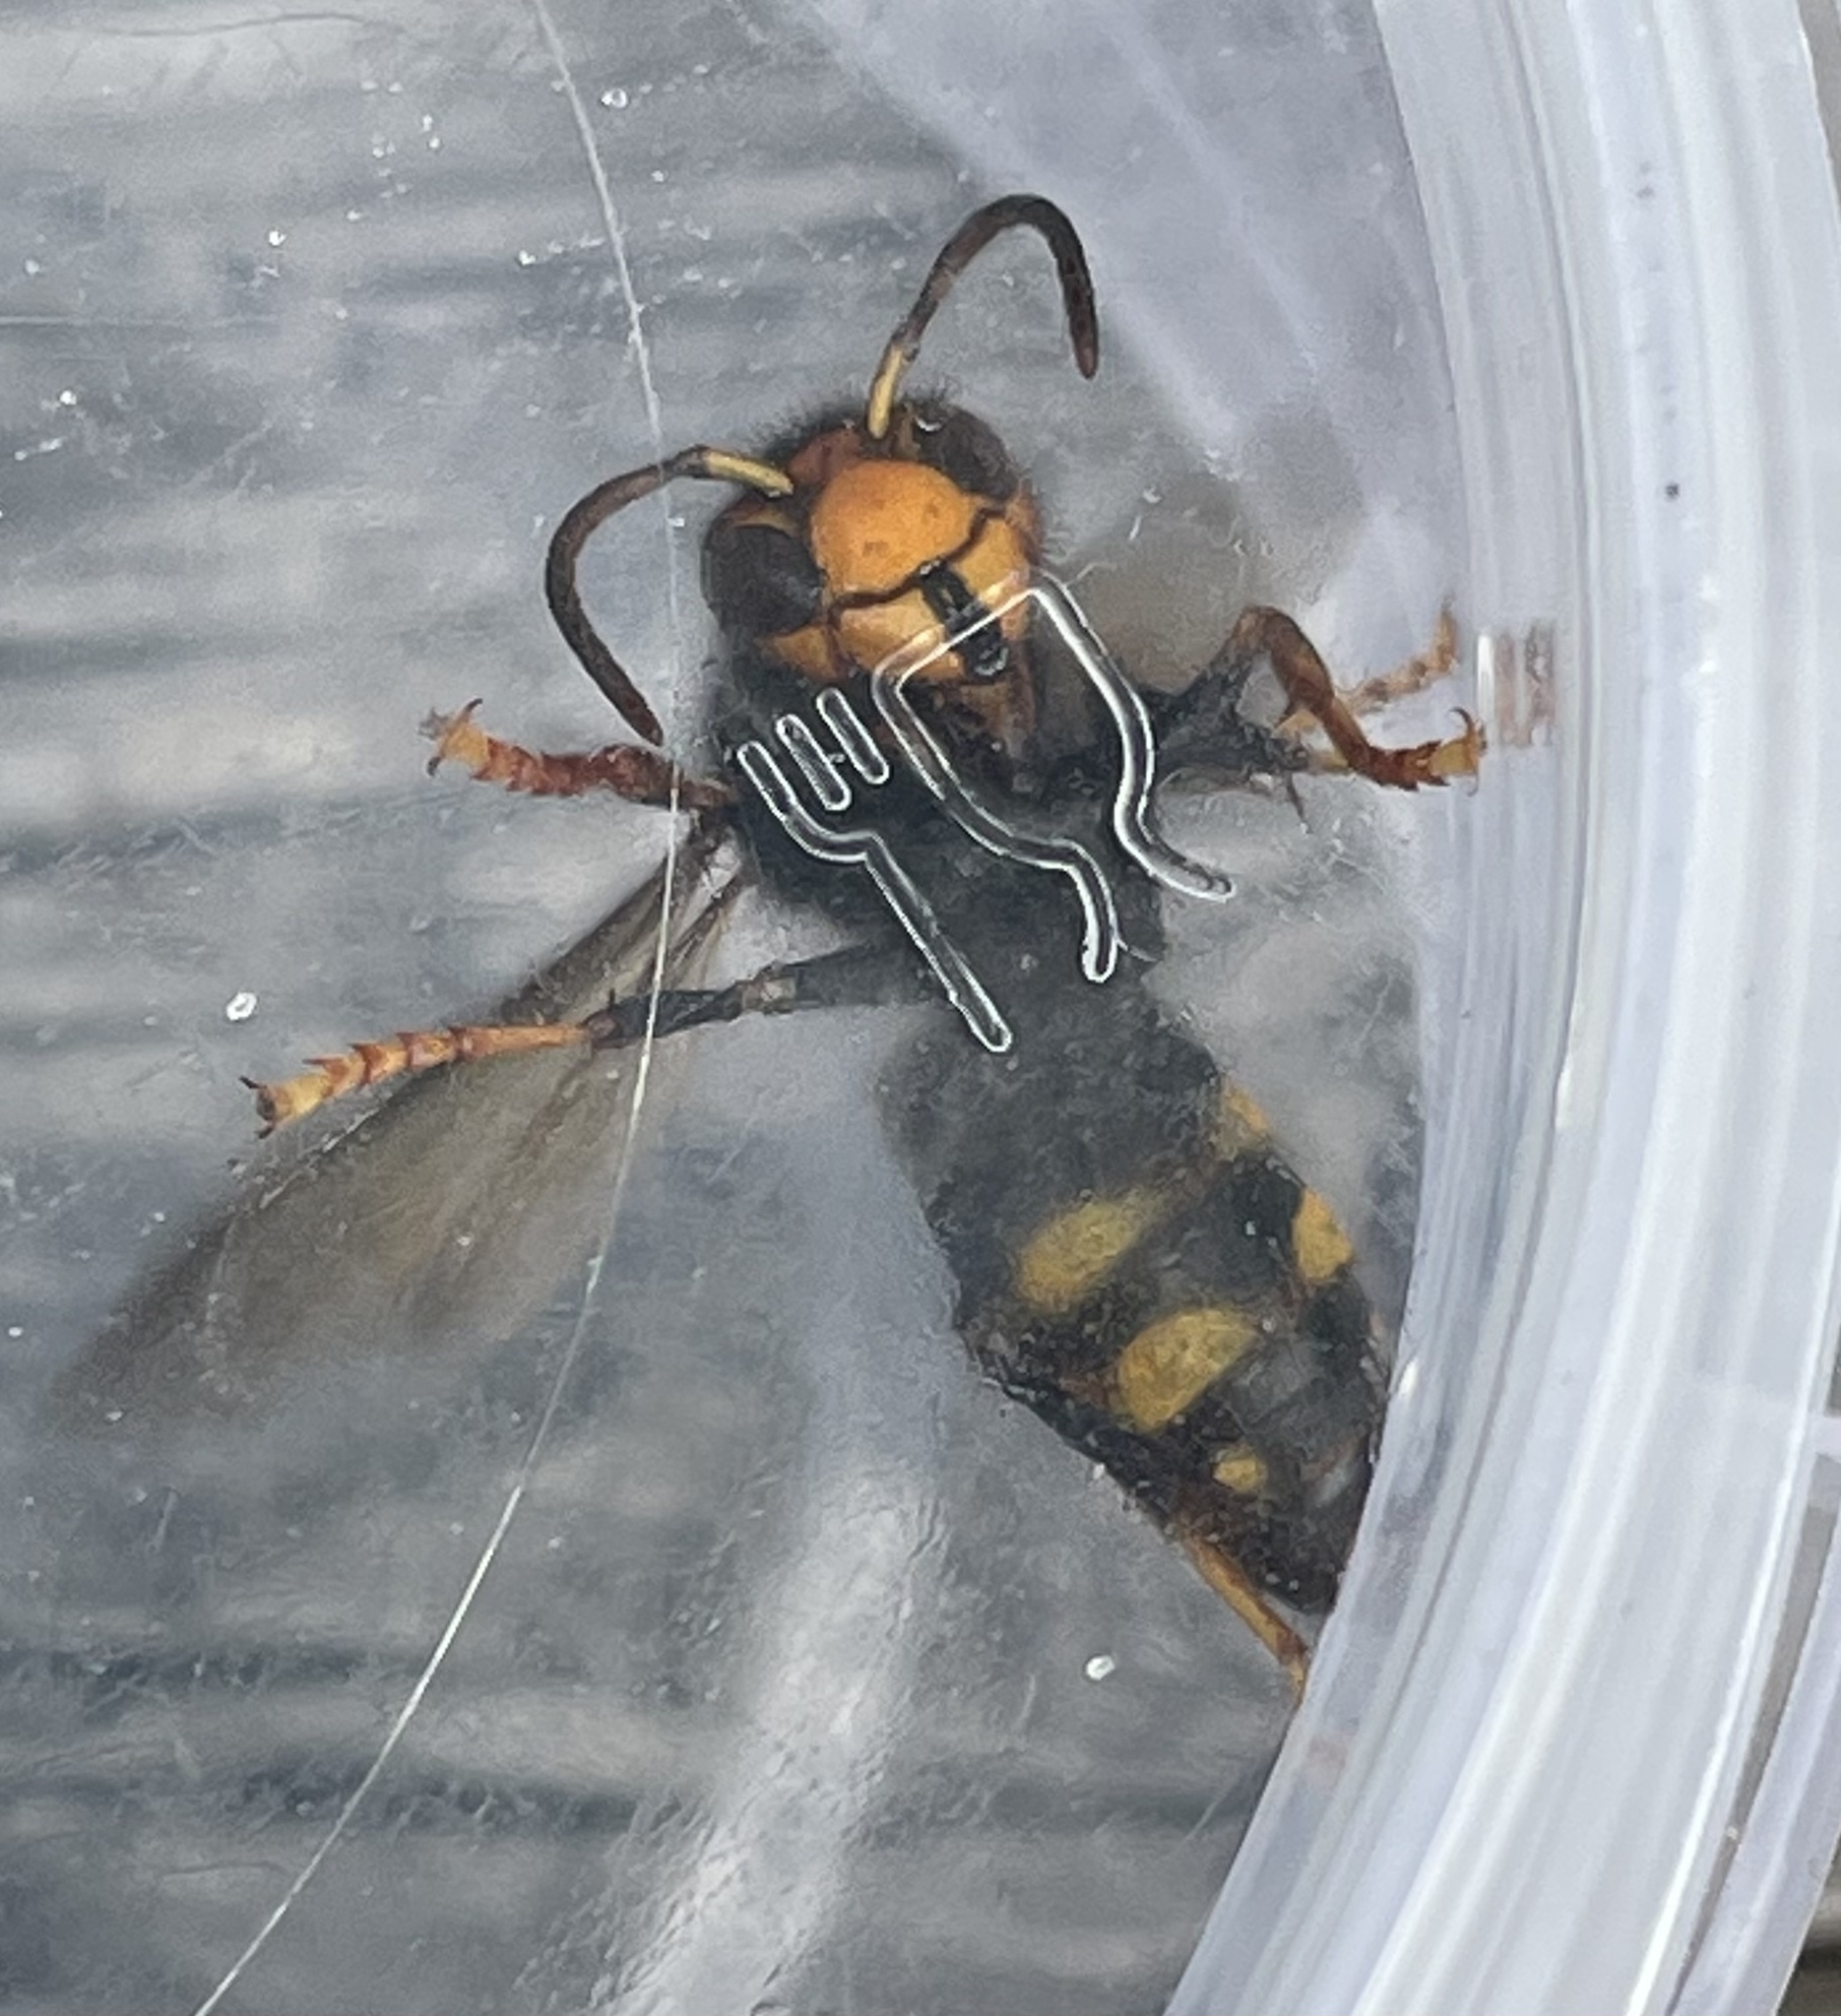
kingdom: Animalia
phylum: Arthropoda
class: Insecta
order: Hymenoptera
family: Vespidae
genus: Vespa
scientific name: Vespa velutina
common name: Asian hornet
